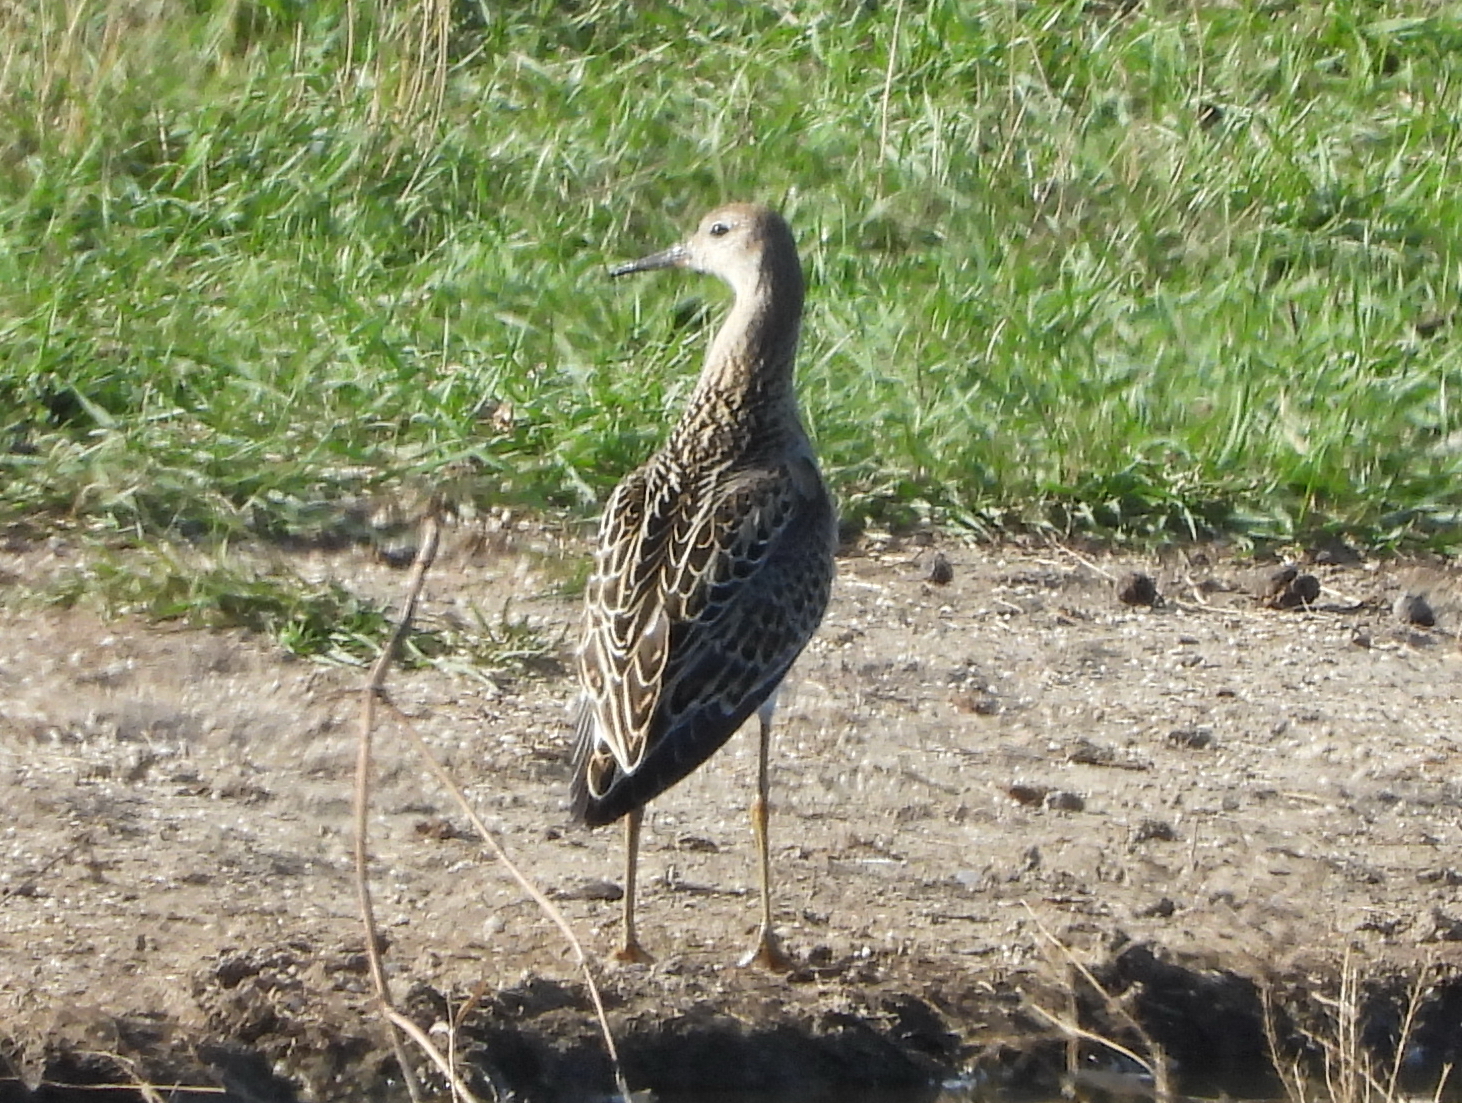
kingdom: Animalia
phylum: Chordata
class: Aves
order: Charadriiformes
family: Scolopacidae
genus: Calidris
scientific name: Calidris pugnax
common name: Ruff
